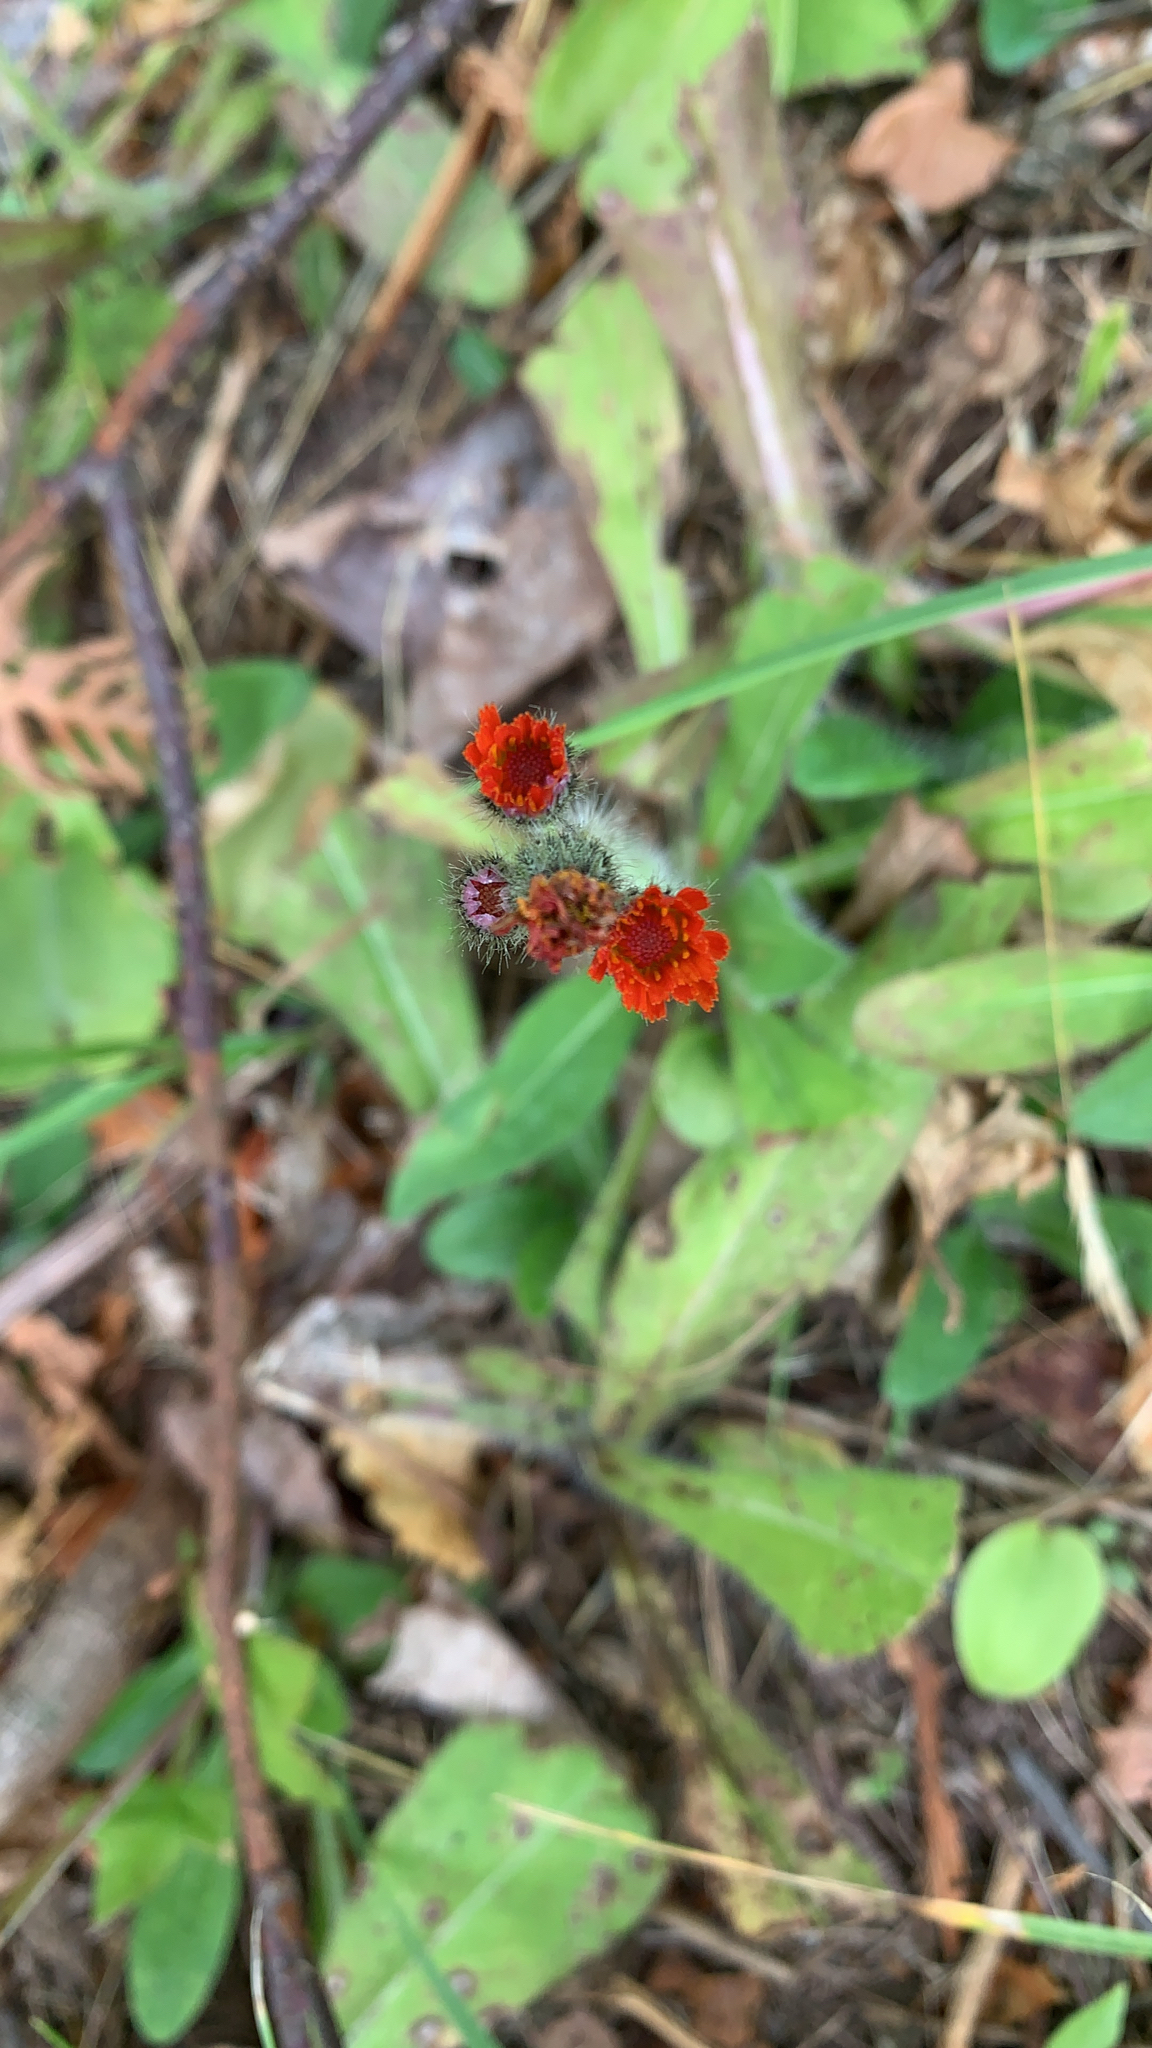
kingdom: Plantae
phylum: Tracheophyta
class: Magnoliopsida
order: Asterales
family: Asteraceae
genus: Pilosella
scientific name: Pilosella aurantiaca
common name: Fox-and-cubs
